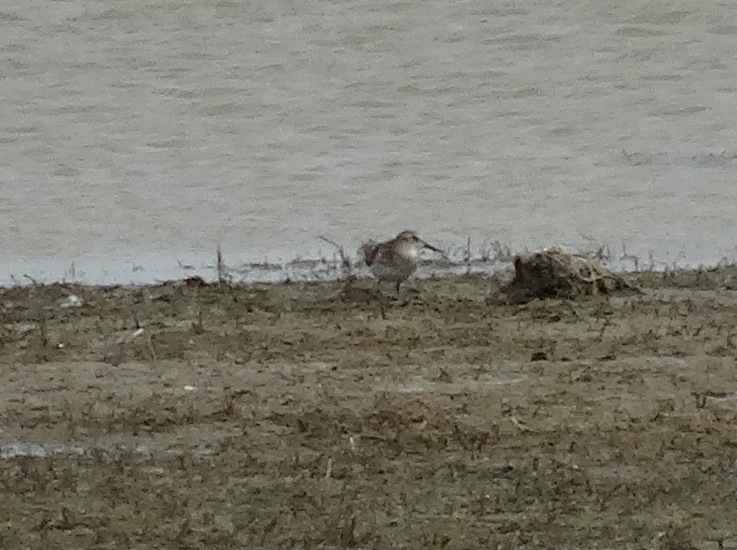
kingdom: Animalia
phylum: Chordata
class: Aves
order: Charadriiformes
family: Scolopacidae
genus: Calidris
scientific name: Calidris minuta
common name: Little stint
